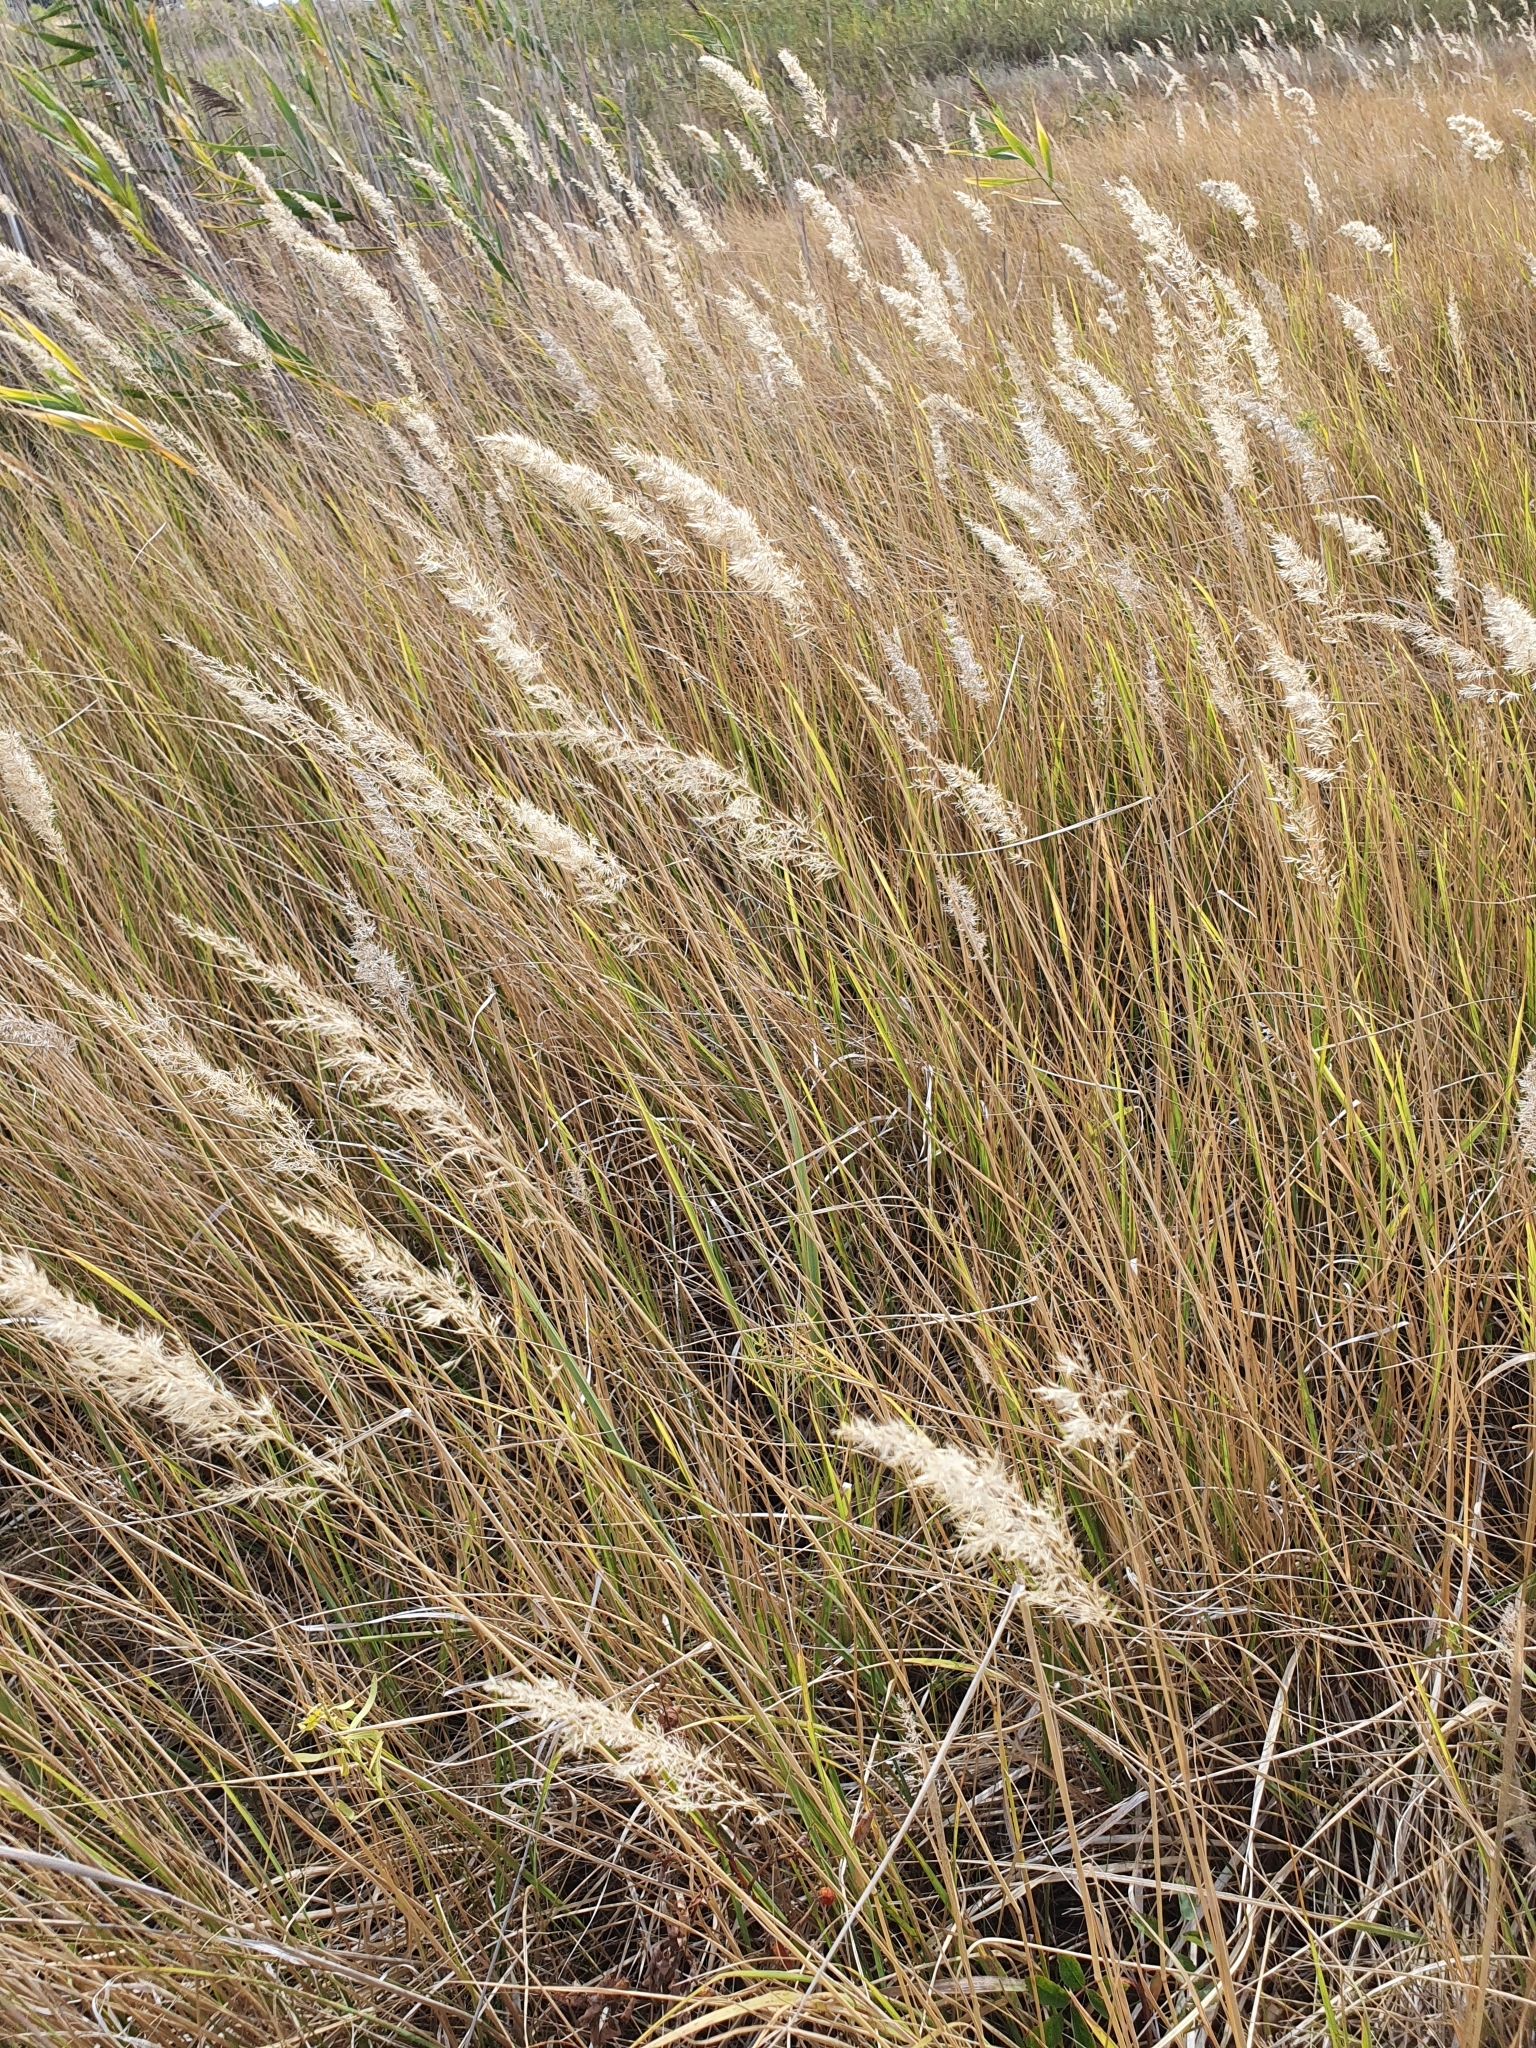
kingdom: Plantae
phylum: Tracheophyta
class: Liliopsida
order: Poales
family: Poaceae
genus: Calamagrostis
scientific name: Calamagrostis epigejos
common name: Wood small-reed
